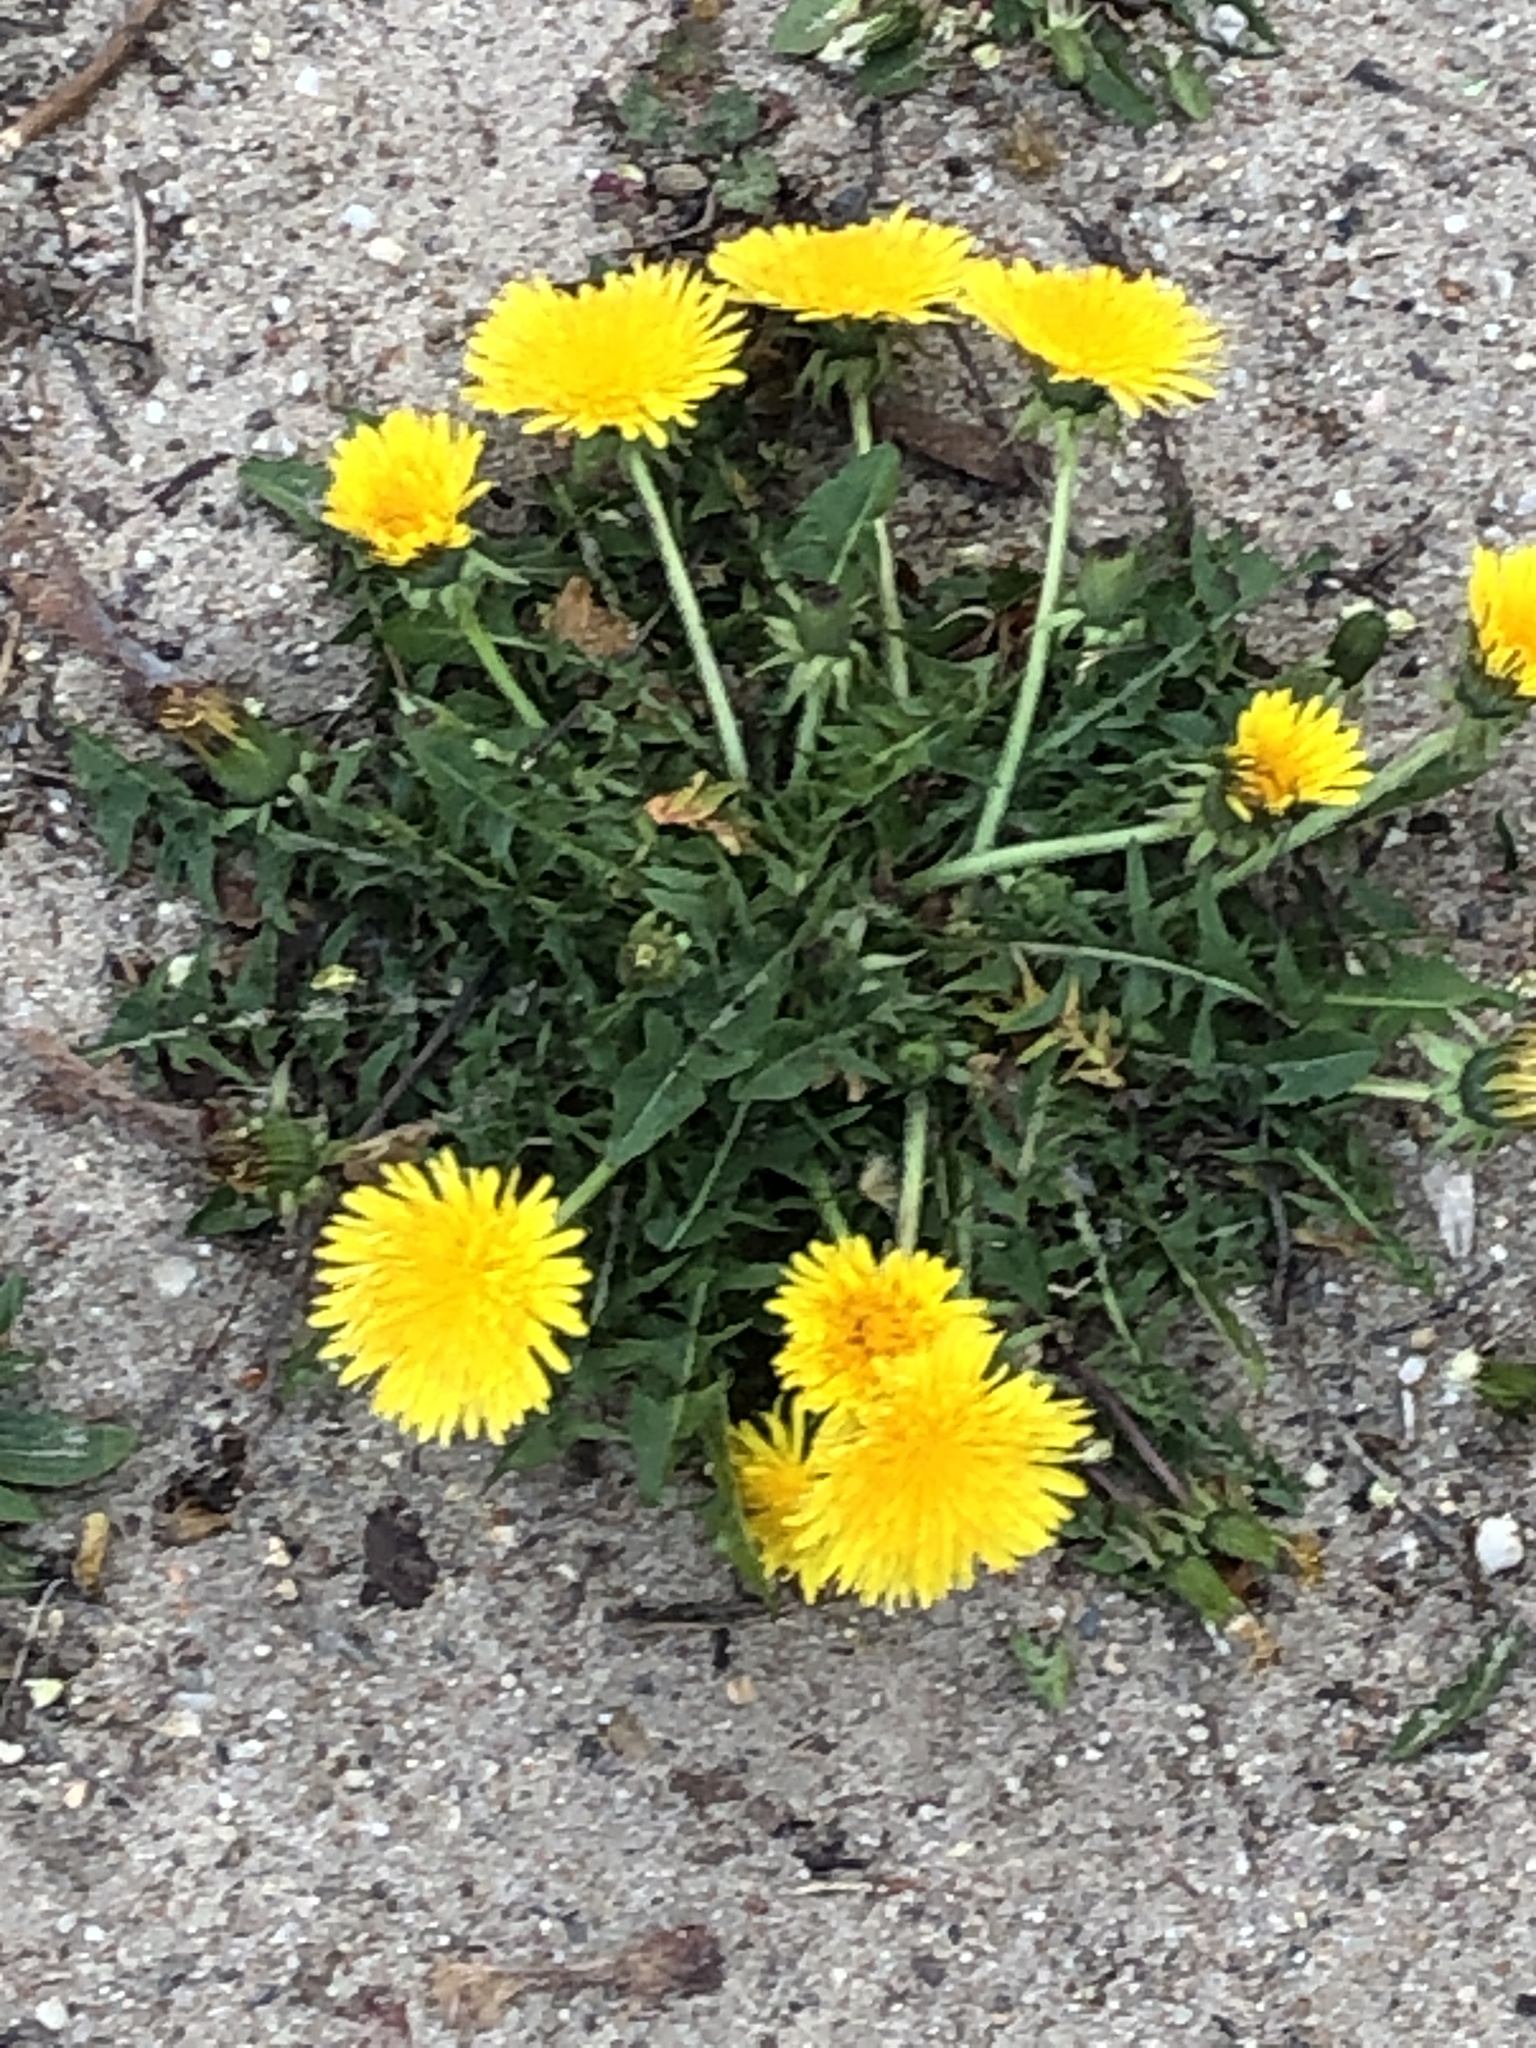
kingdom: Plantae
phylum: Tracheophyta
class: Magnoliopsida
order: Asterales
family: Asteraceae
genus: Taraxacum
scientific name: Taraxacum officinale
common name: Common dandelion
